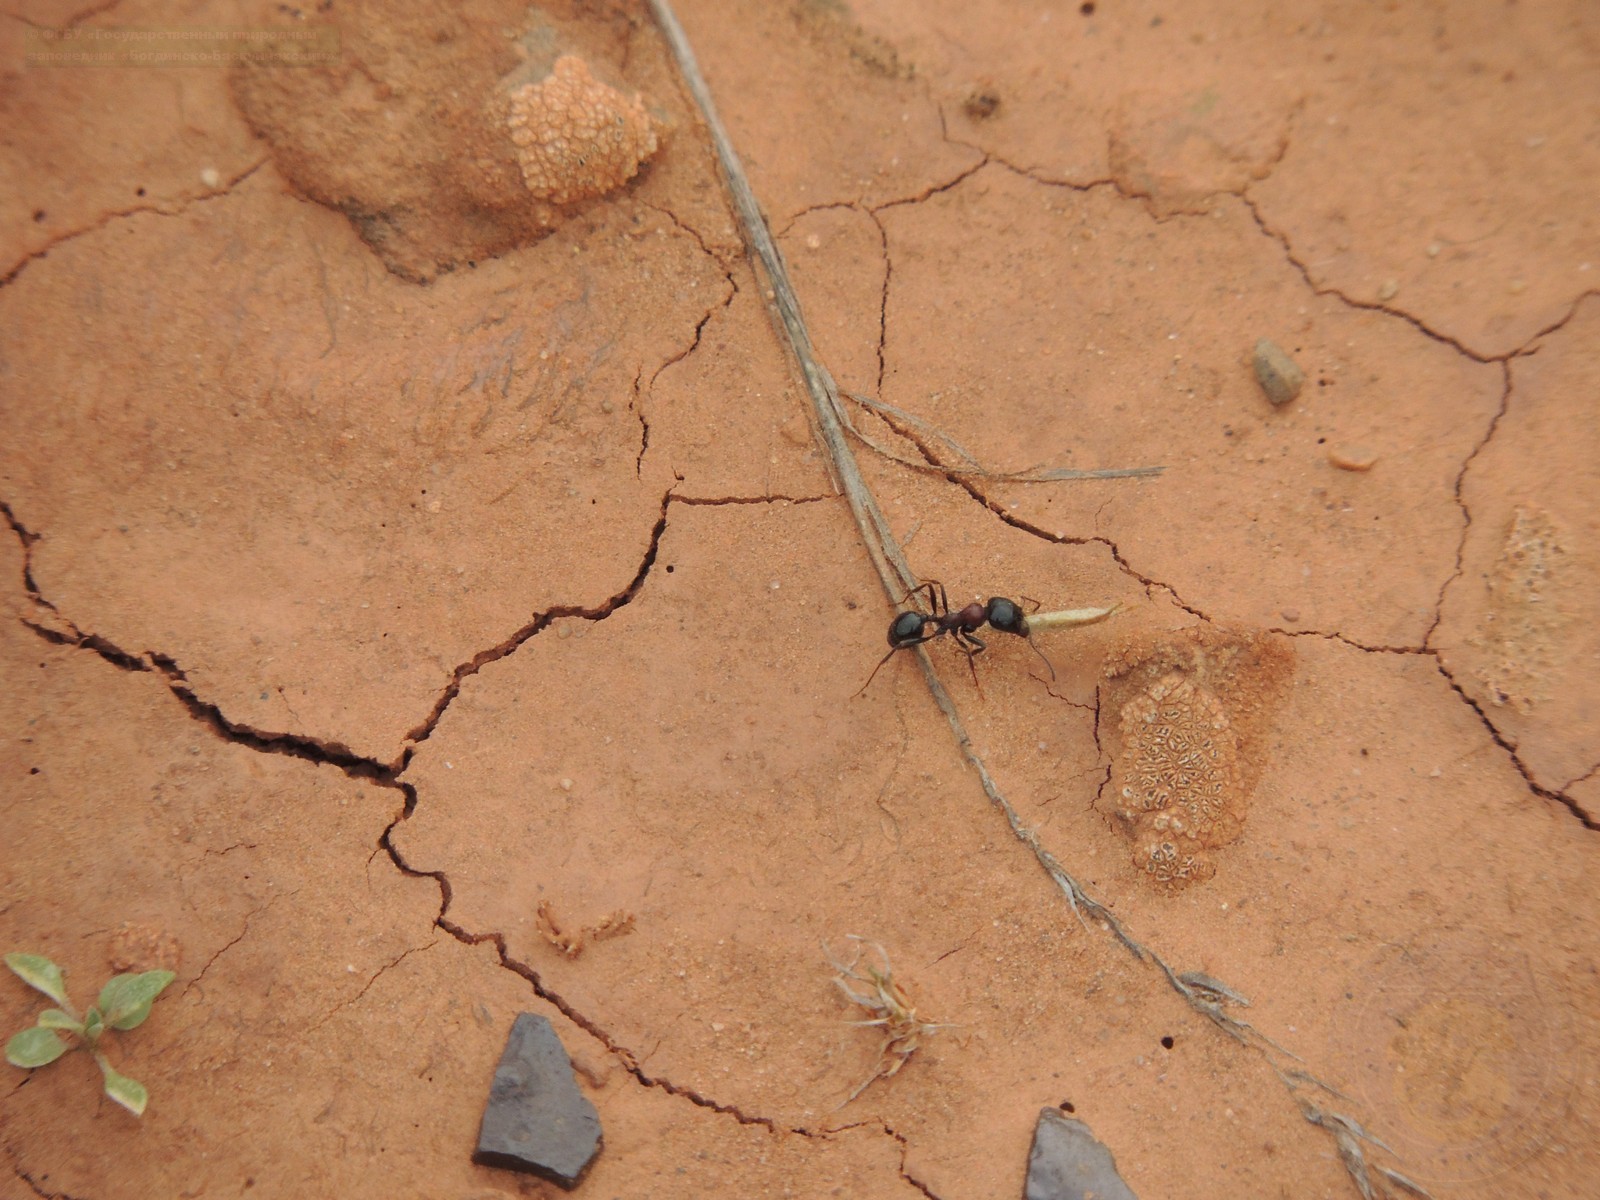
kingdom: Animalia
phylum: Arthropoda
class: Insecta
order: Hymenoptera
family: Formicidae
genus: Messor
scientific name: Messor denticulatus
